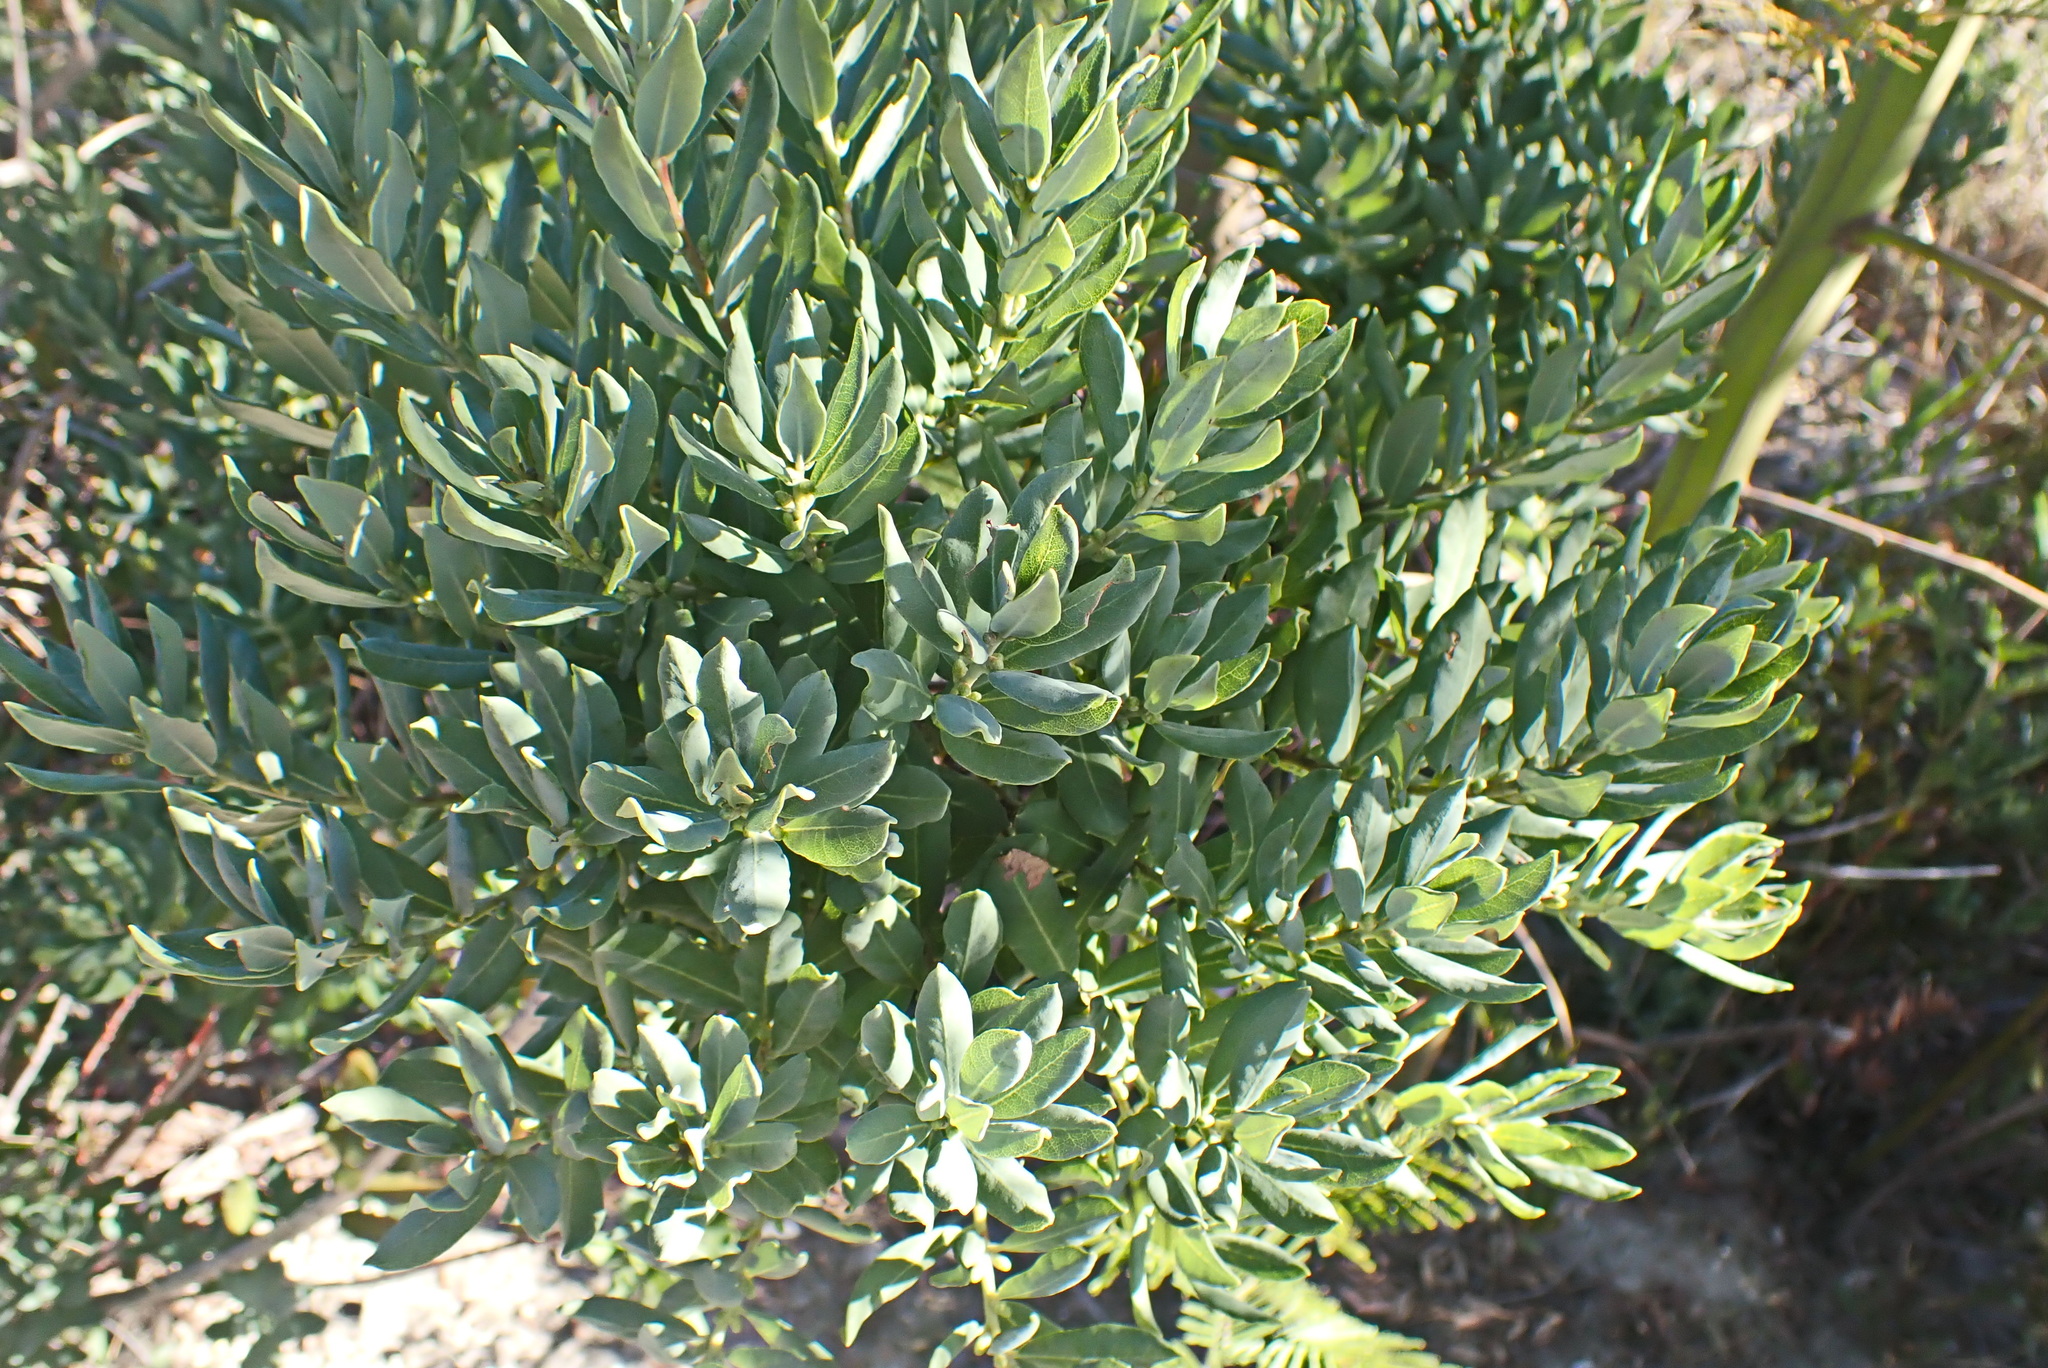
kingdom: Plantae
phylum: Tracheophyta
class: Magnoliopsida
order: Fagales
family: Myricaceae
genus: Morella
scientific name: Morella humilis
